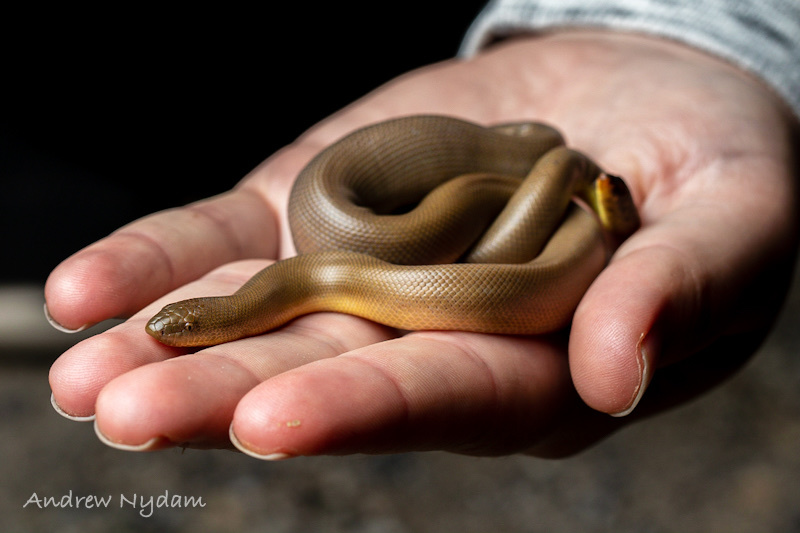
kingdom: Animalia
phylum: Chordata
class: Squamata
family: Boidae
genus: Charina
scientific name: Charina bottae
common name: Northern rubber boa
